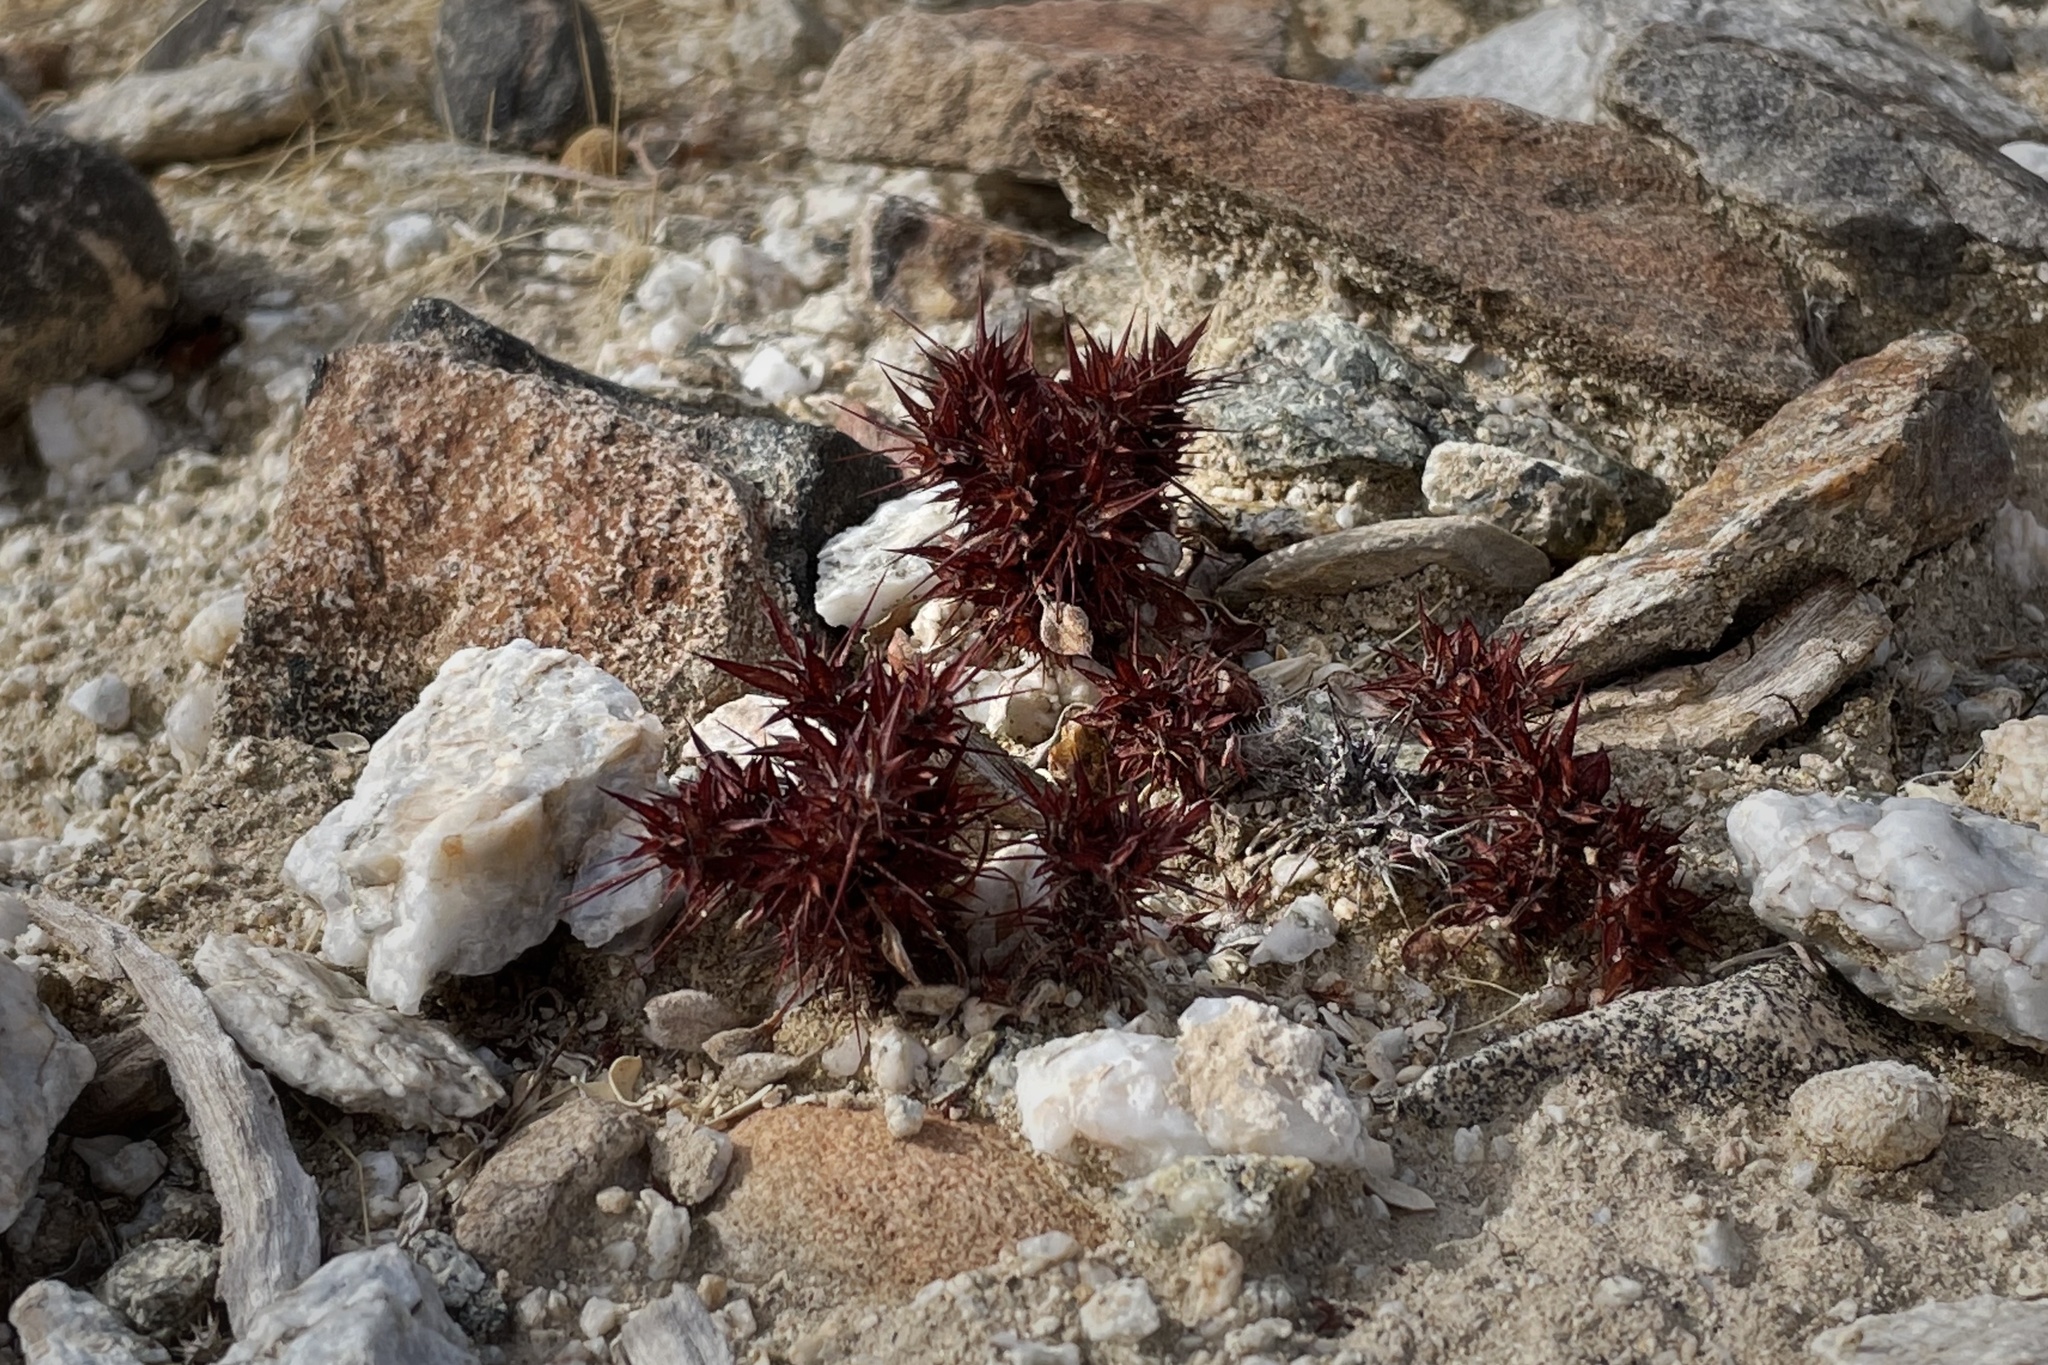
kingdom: Plantae
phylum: Tracheophyta
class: Magnoliopsida
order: Caryophyllales
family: Polygonaceae
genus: Chorizanthe
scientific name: Chorizanthe rigida
